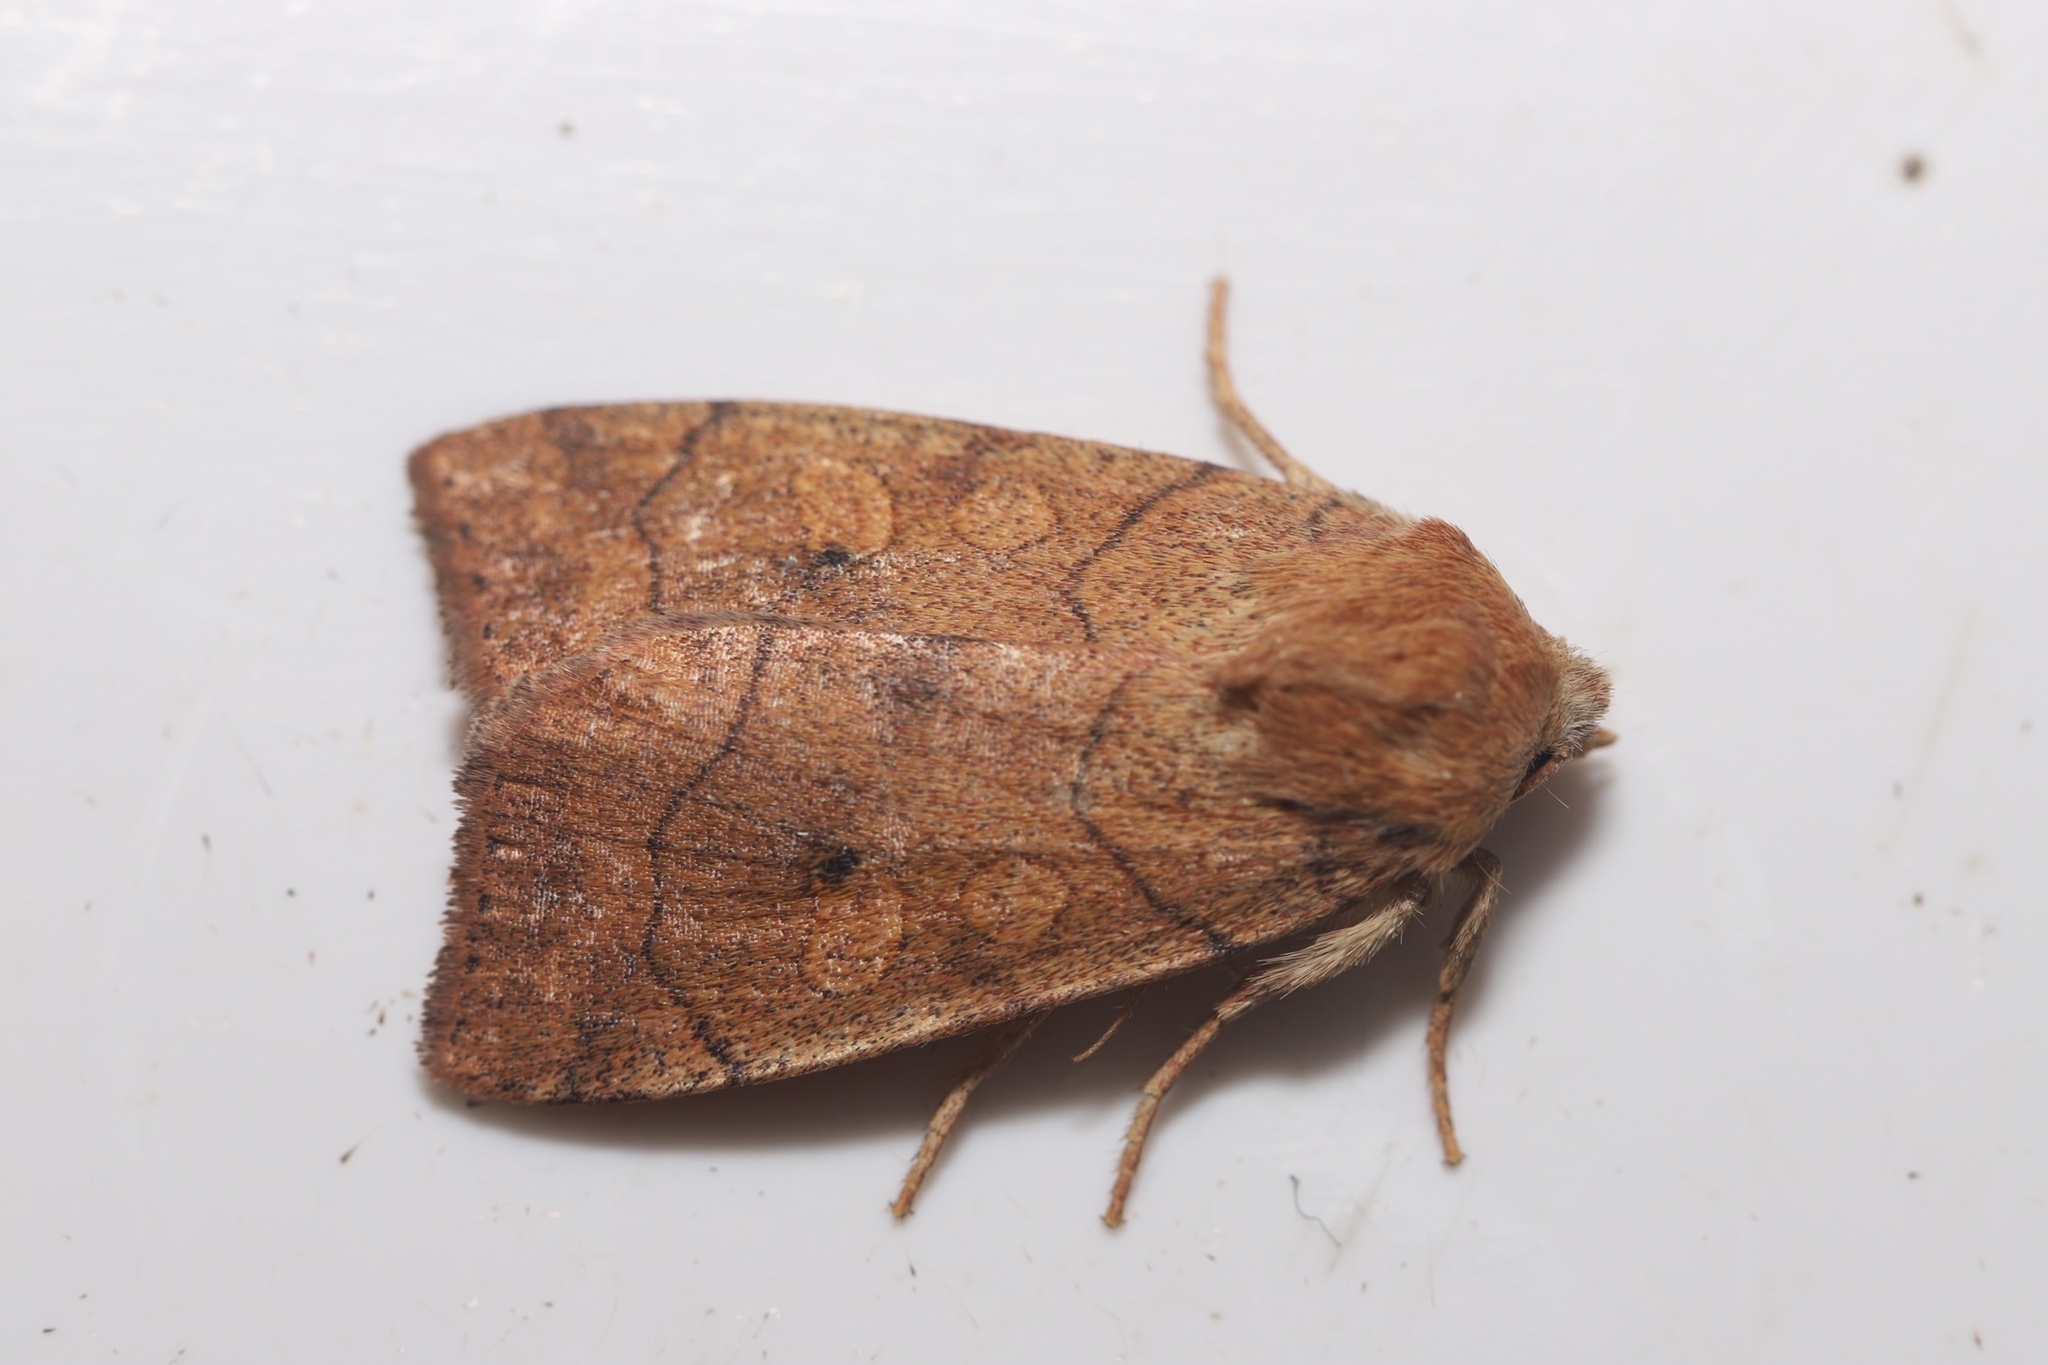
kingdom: Animalia
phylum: Arthropoda
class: Insecta
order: Lepidoptera
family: Noctuidae
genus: Enargia
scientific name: Enargia infumata
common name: Smoked sallow
